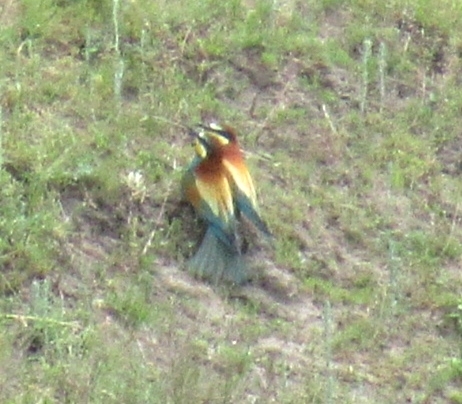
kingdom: Animalia
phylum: Chordata
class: Aves
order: Coraciiformes
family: Meropidae
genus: Merops
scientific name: Merops apiaster
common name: European bee-eater
